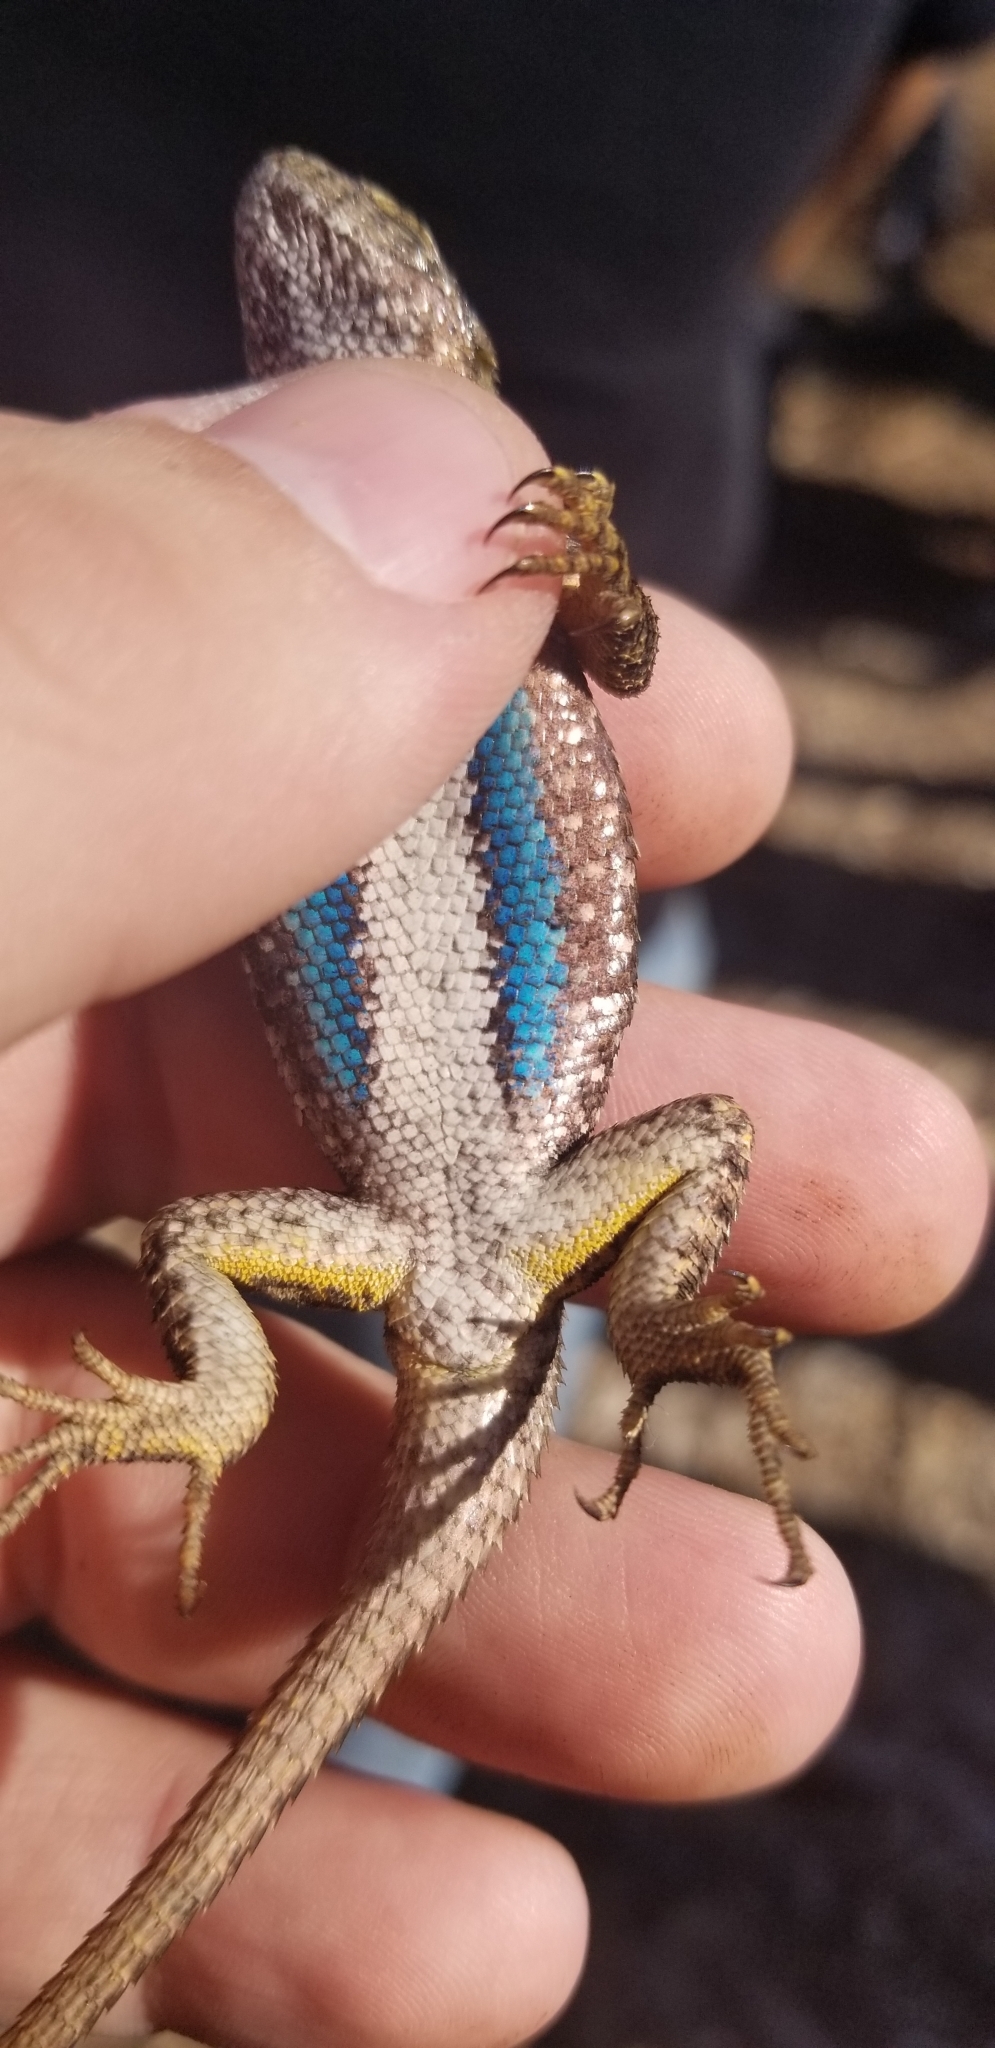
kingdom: Animalia
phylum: Chordata
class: Squamata
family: Phrynosomatidae
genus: Sceloporus
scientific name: Sceloporus occidentalis
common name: Western fence lizard
